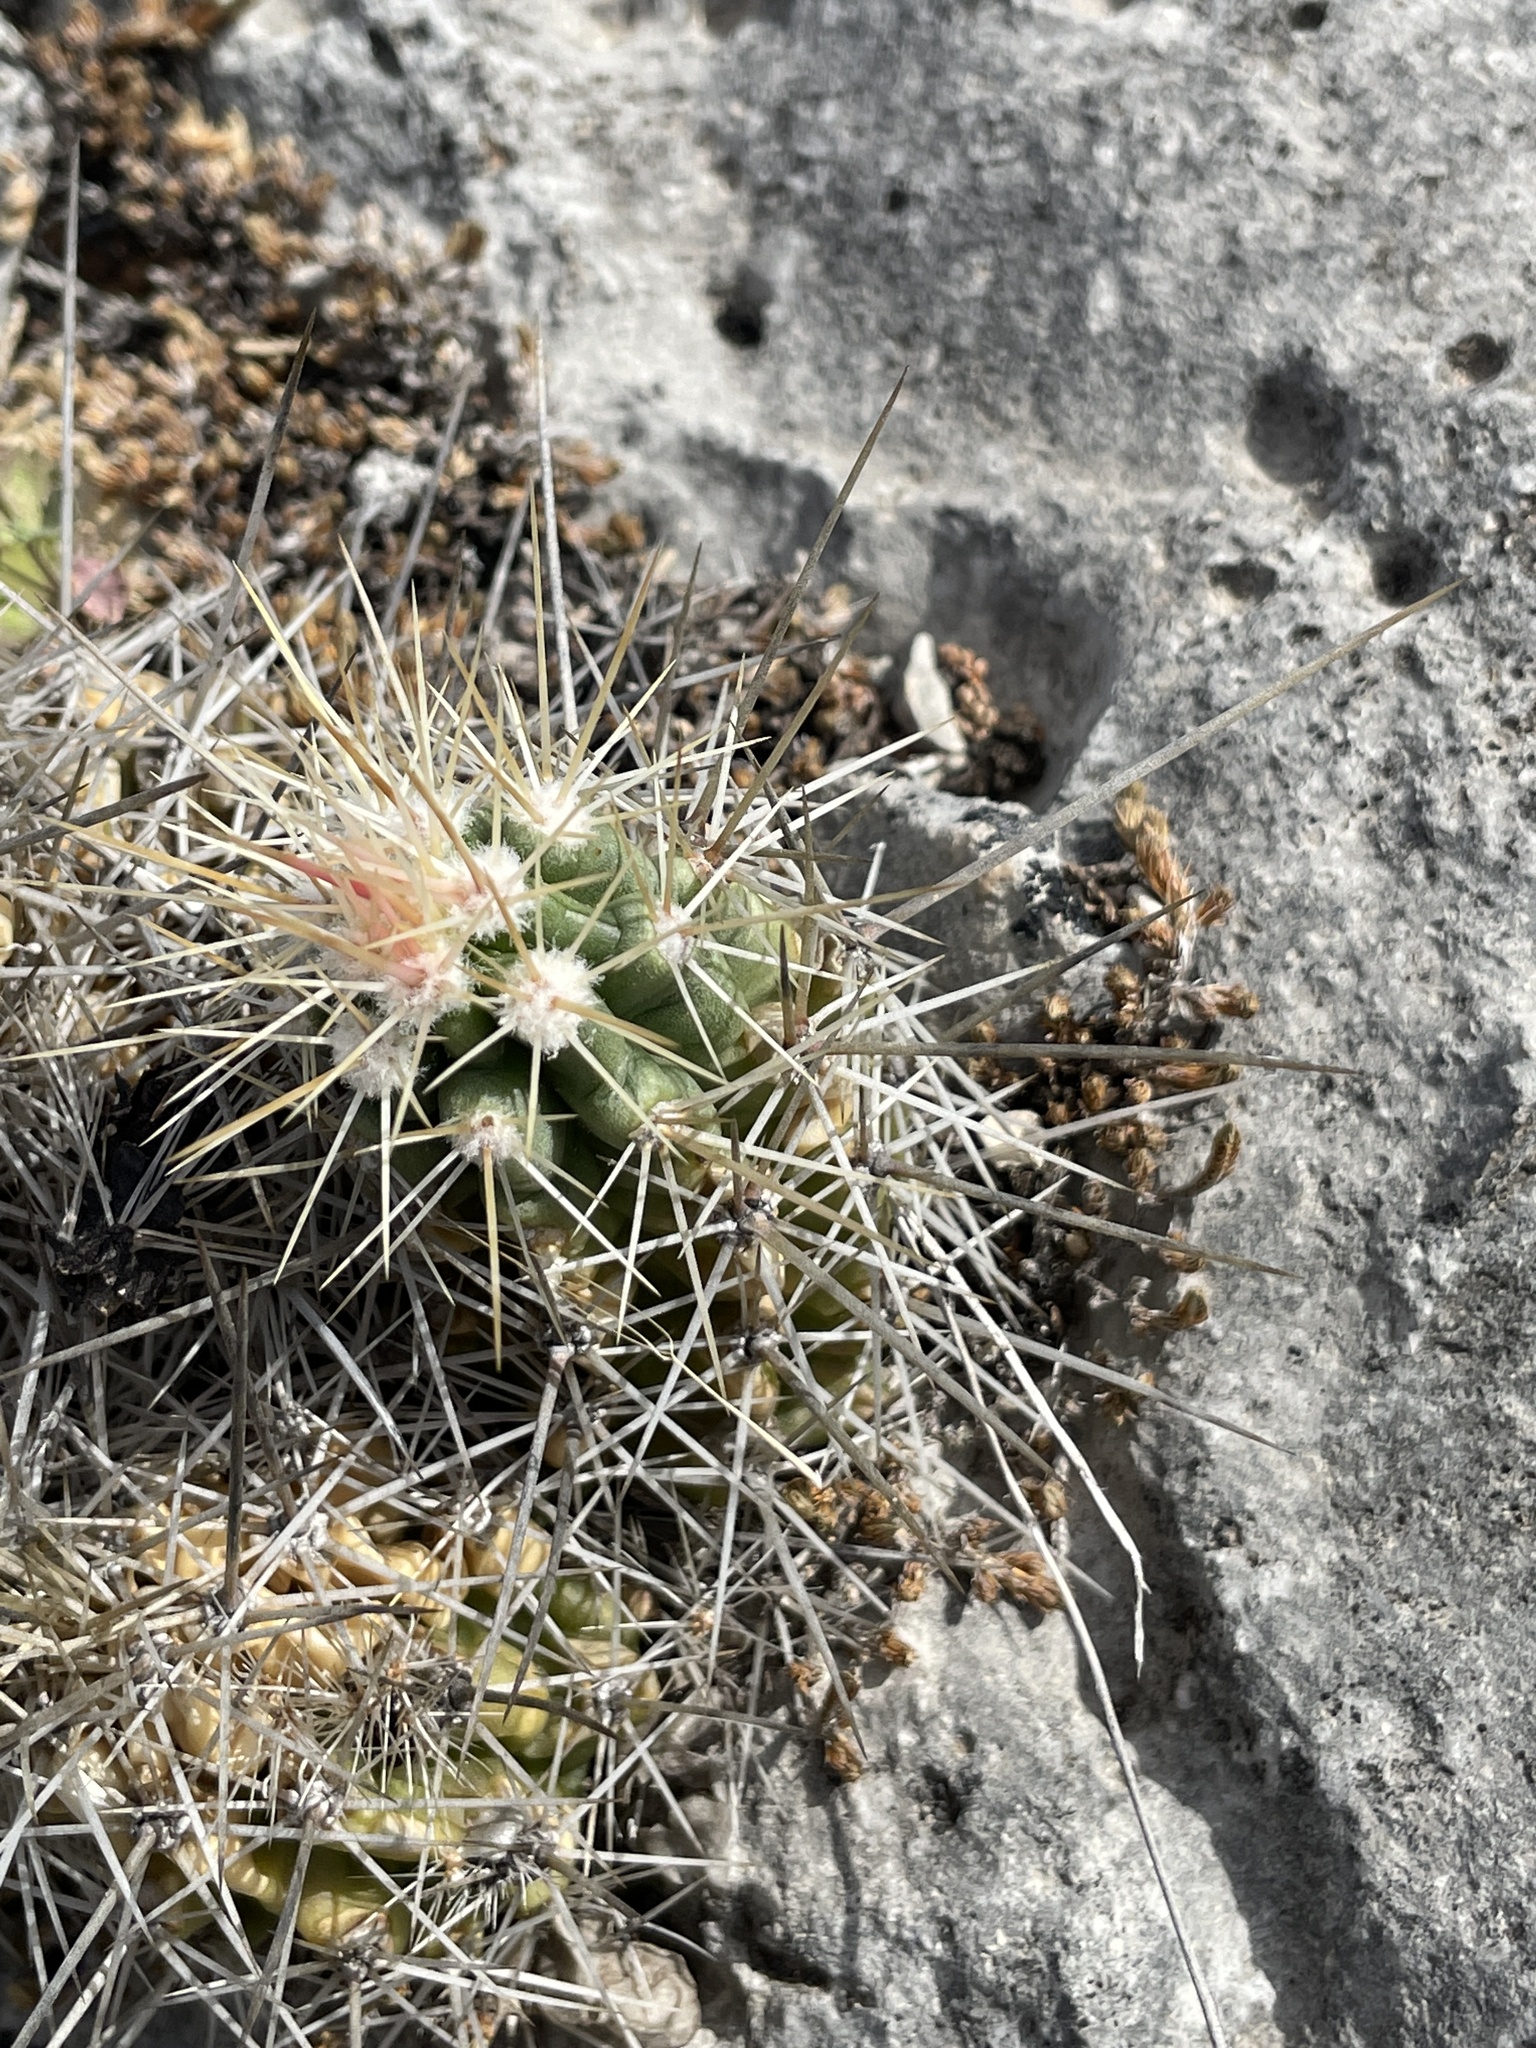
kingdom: Plantae
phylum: Tracheophyta
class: Magnoliopsida
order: Caryophyllales
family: Cactaceae
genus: Echinocereus
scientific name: Echinocereus enneacanthus
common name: Pitaya
